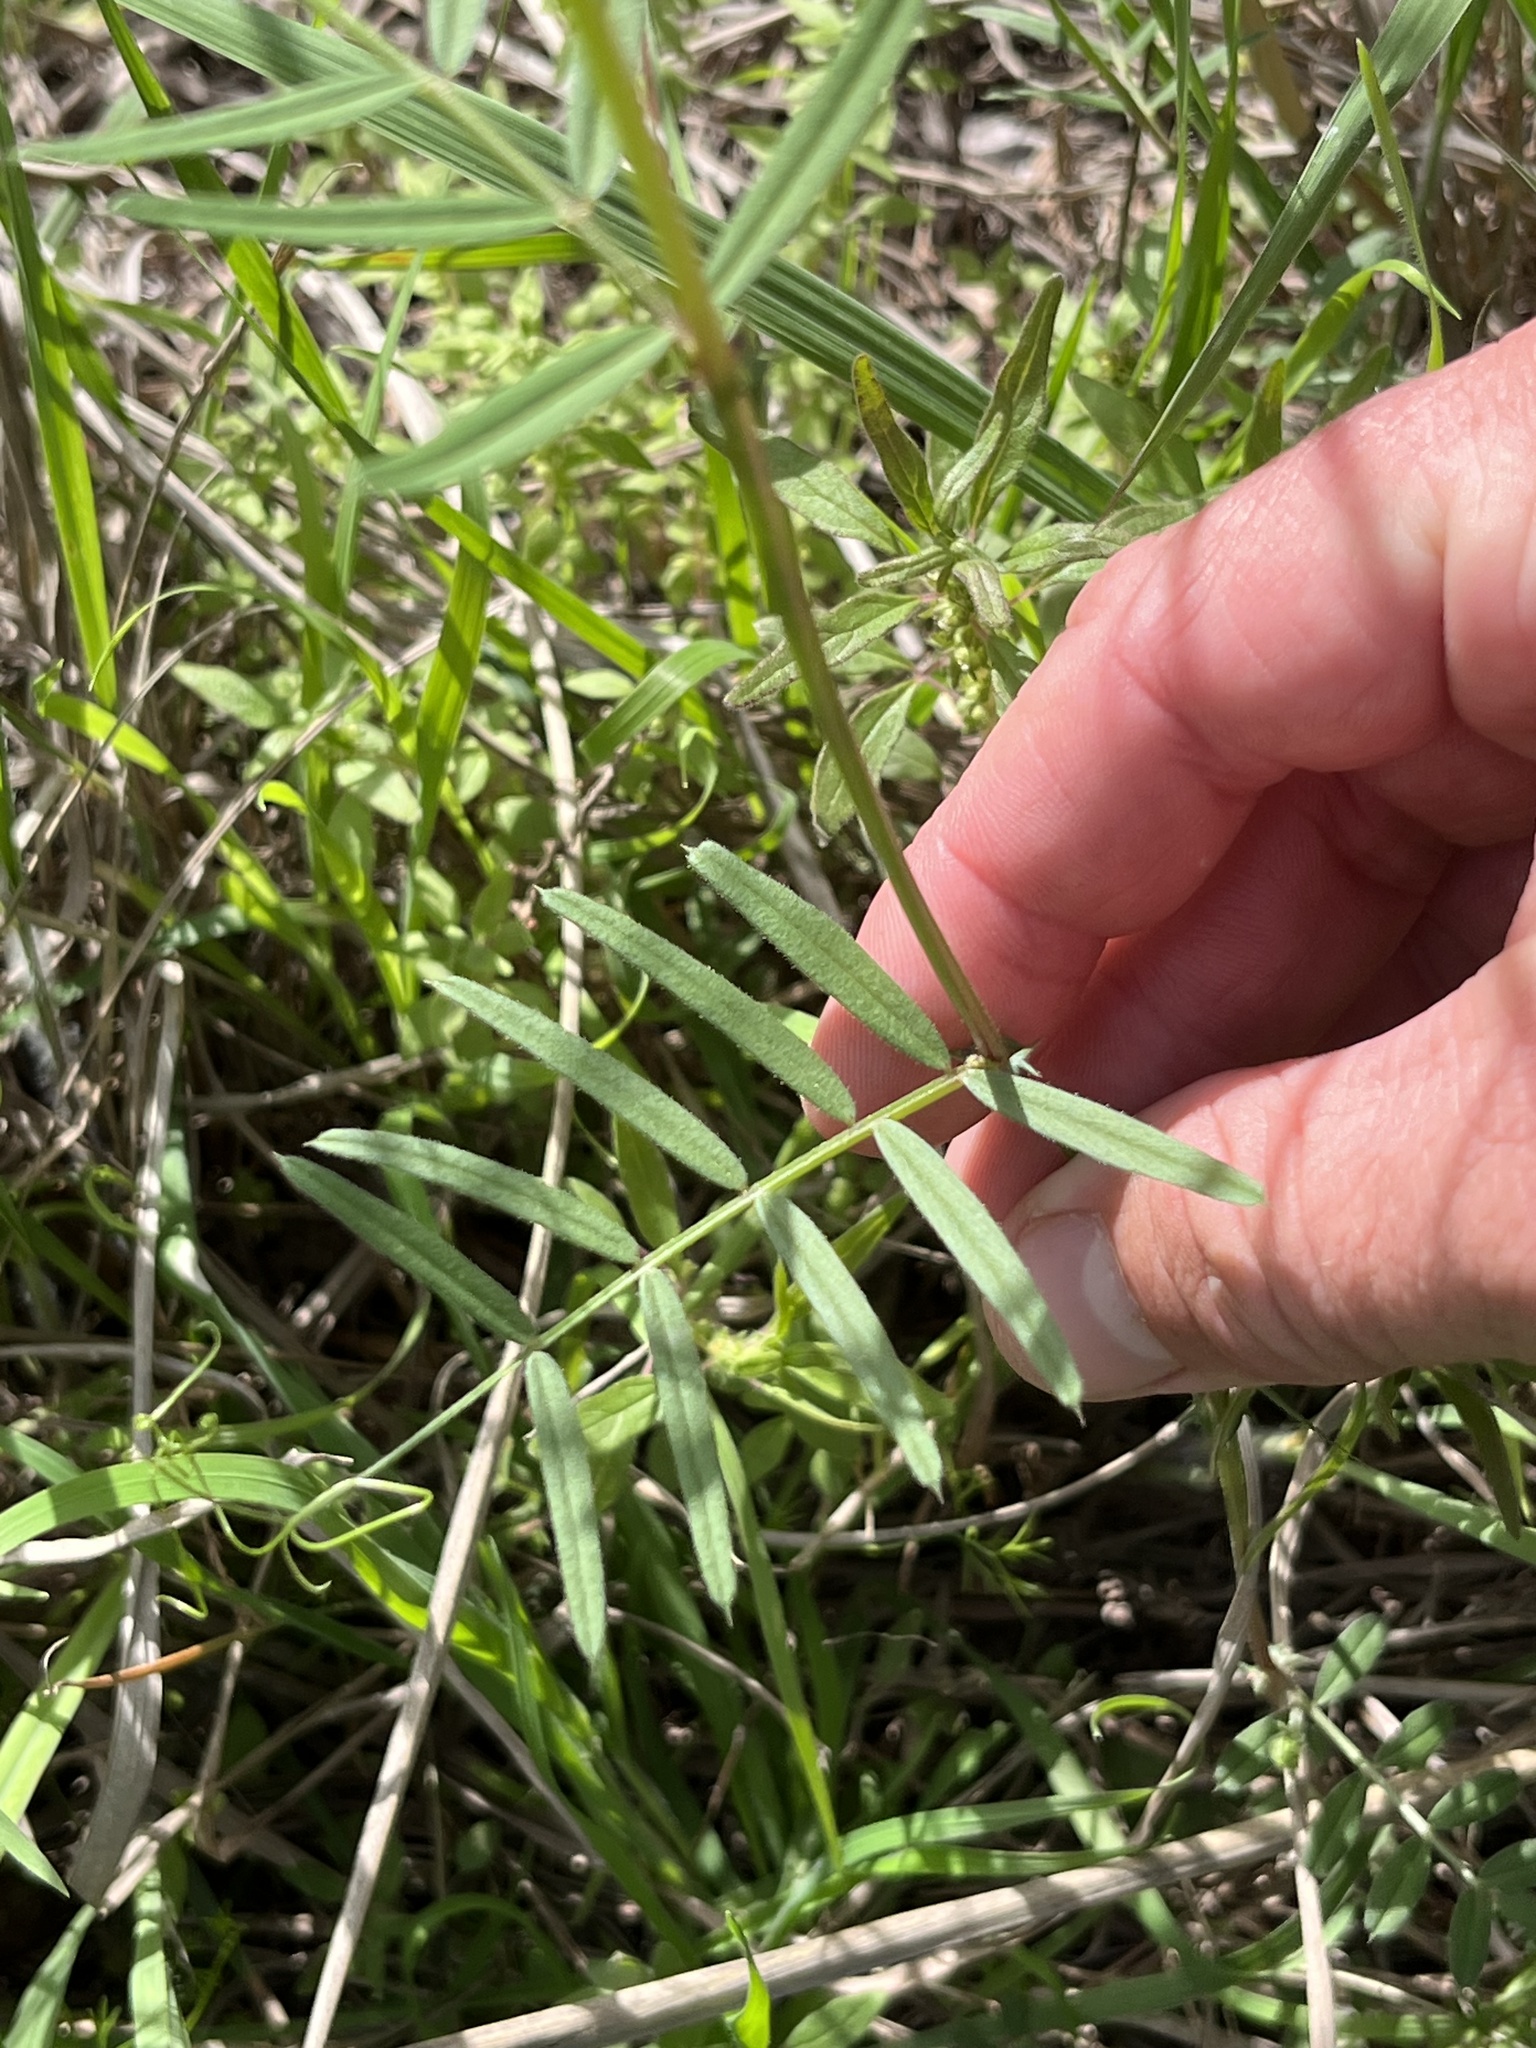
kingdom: Plantae
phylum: Tracheophyta
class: Magnoliopsida
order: Fabales
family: Fabaceae
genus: Vicia
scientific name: Vicia sativa
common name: Garden vetch
